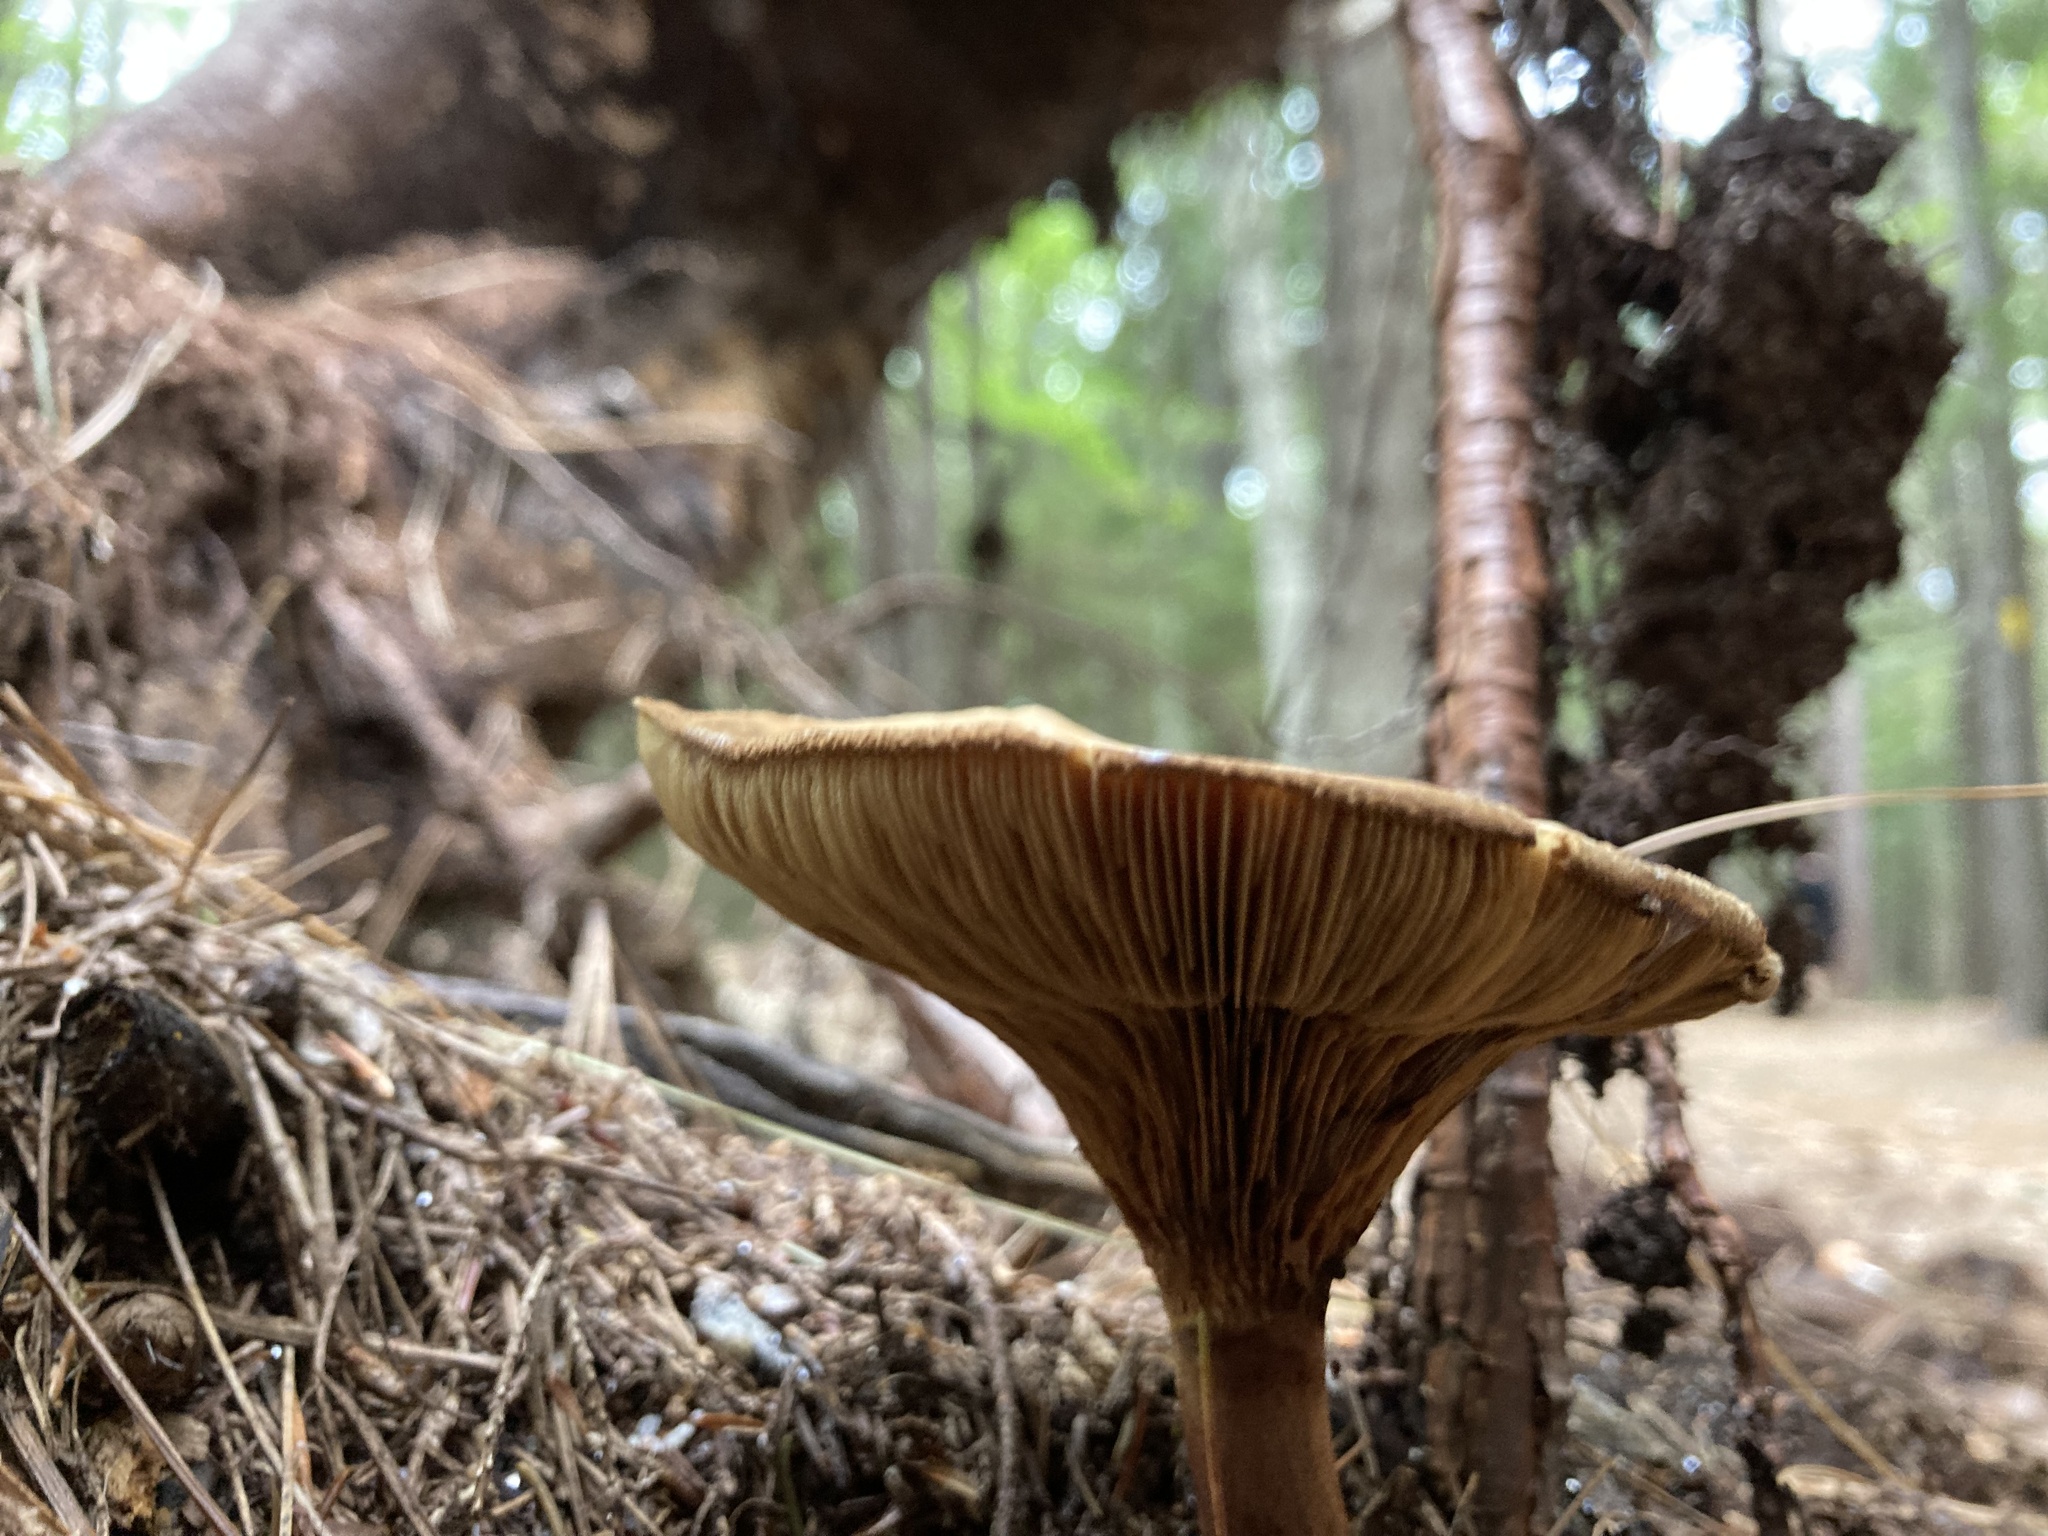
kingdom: Fungi
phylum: Basidiomycota
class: Agaricomycetes
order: Boletales
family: Paxillaceae
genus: Paxillus
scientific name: Paxillus involutus
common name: Brown roll rim
